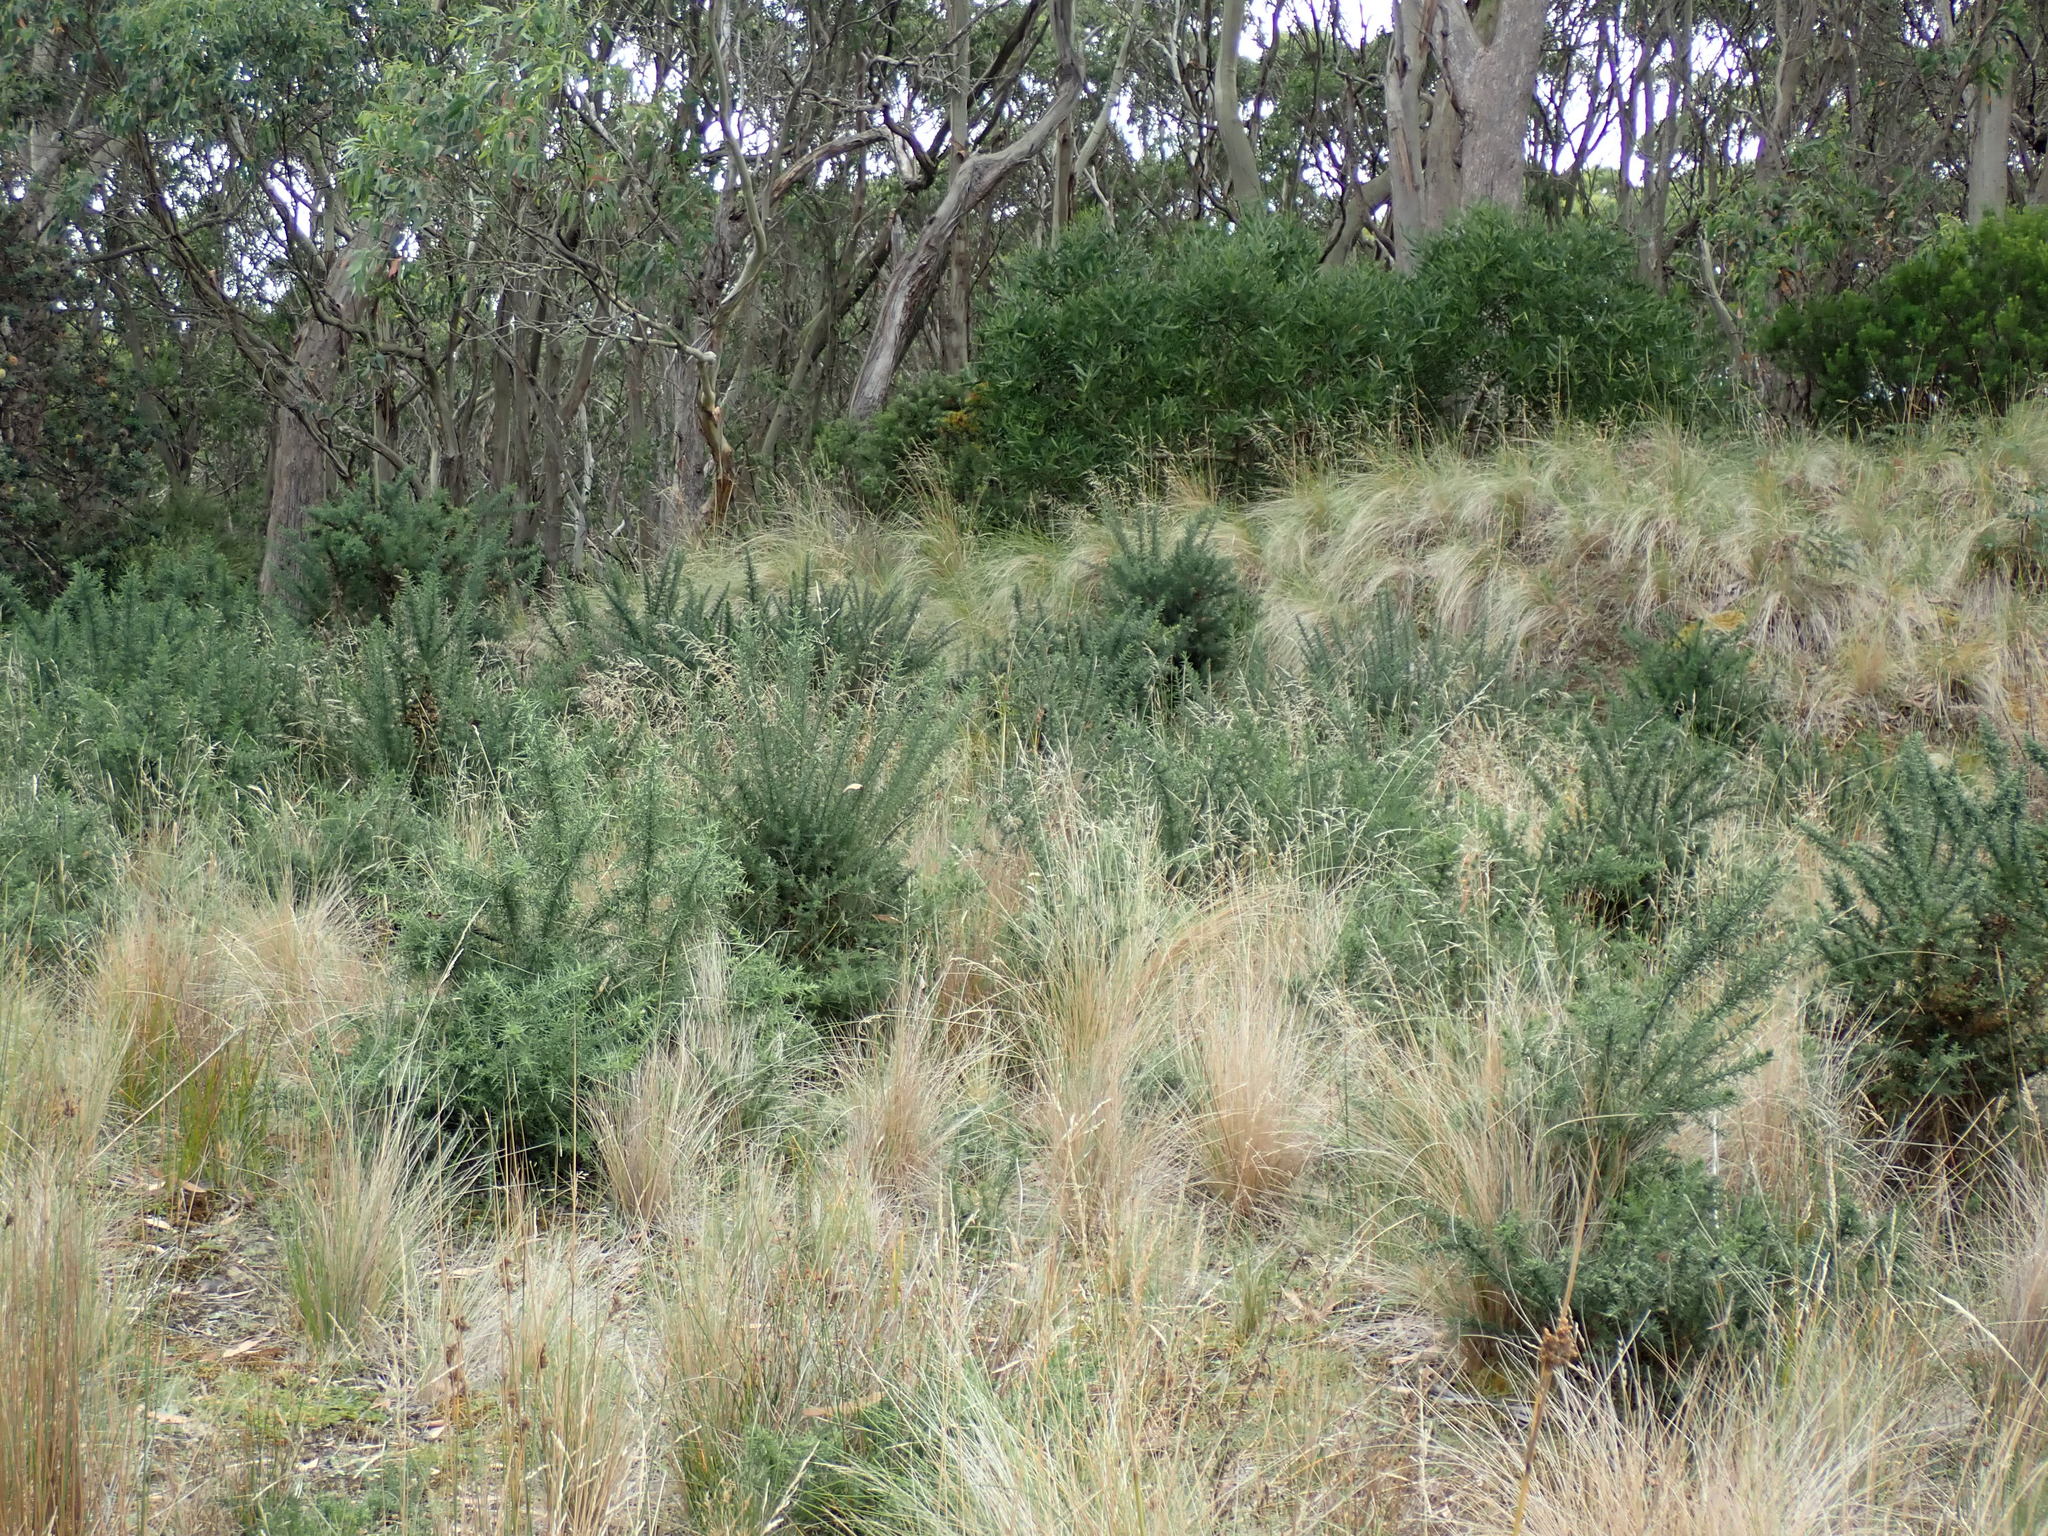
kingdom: Plantae
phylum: Tracheophyta
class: Magnoliopsida
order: Fabales
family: Fabaceae
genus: Ulex
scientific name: Ulex europaeus
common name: Common gorse
